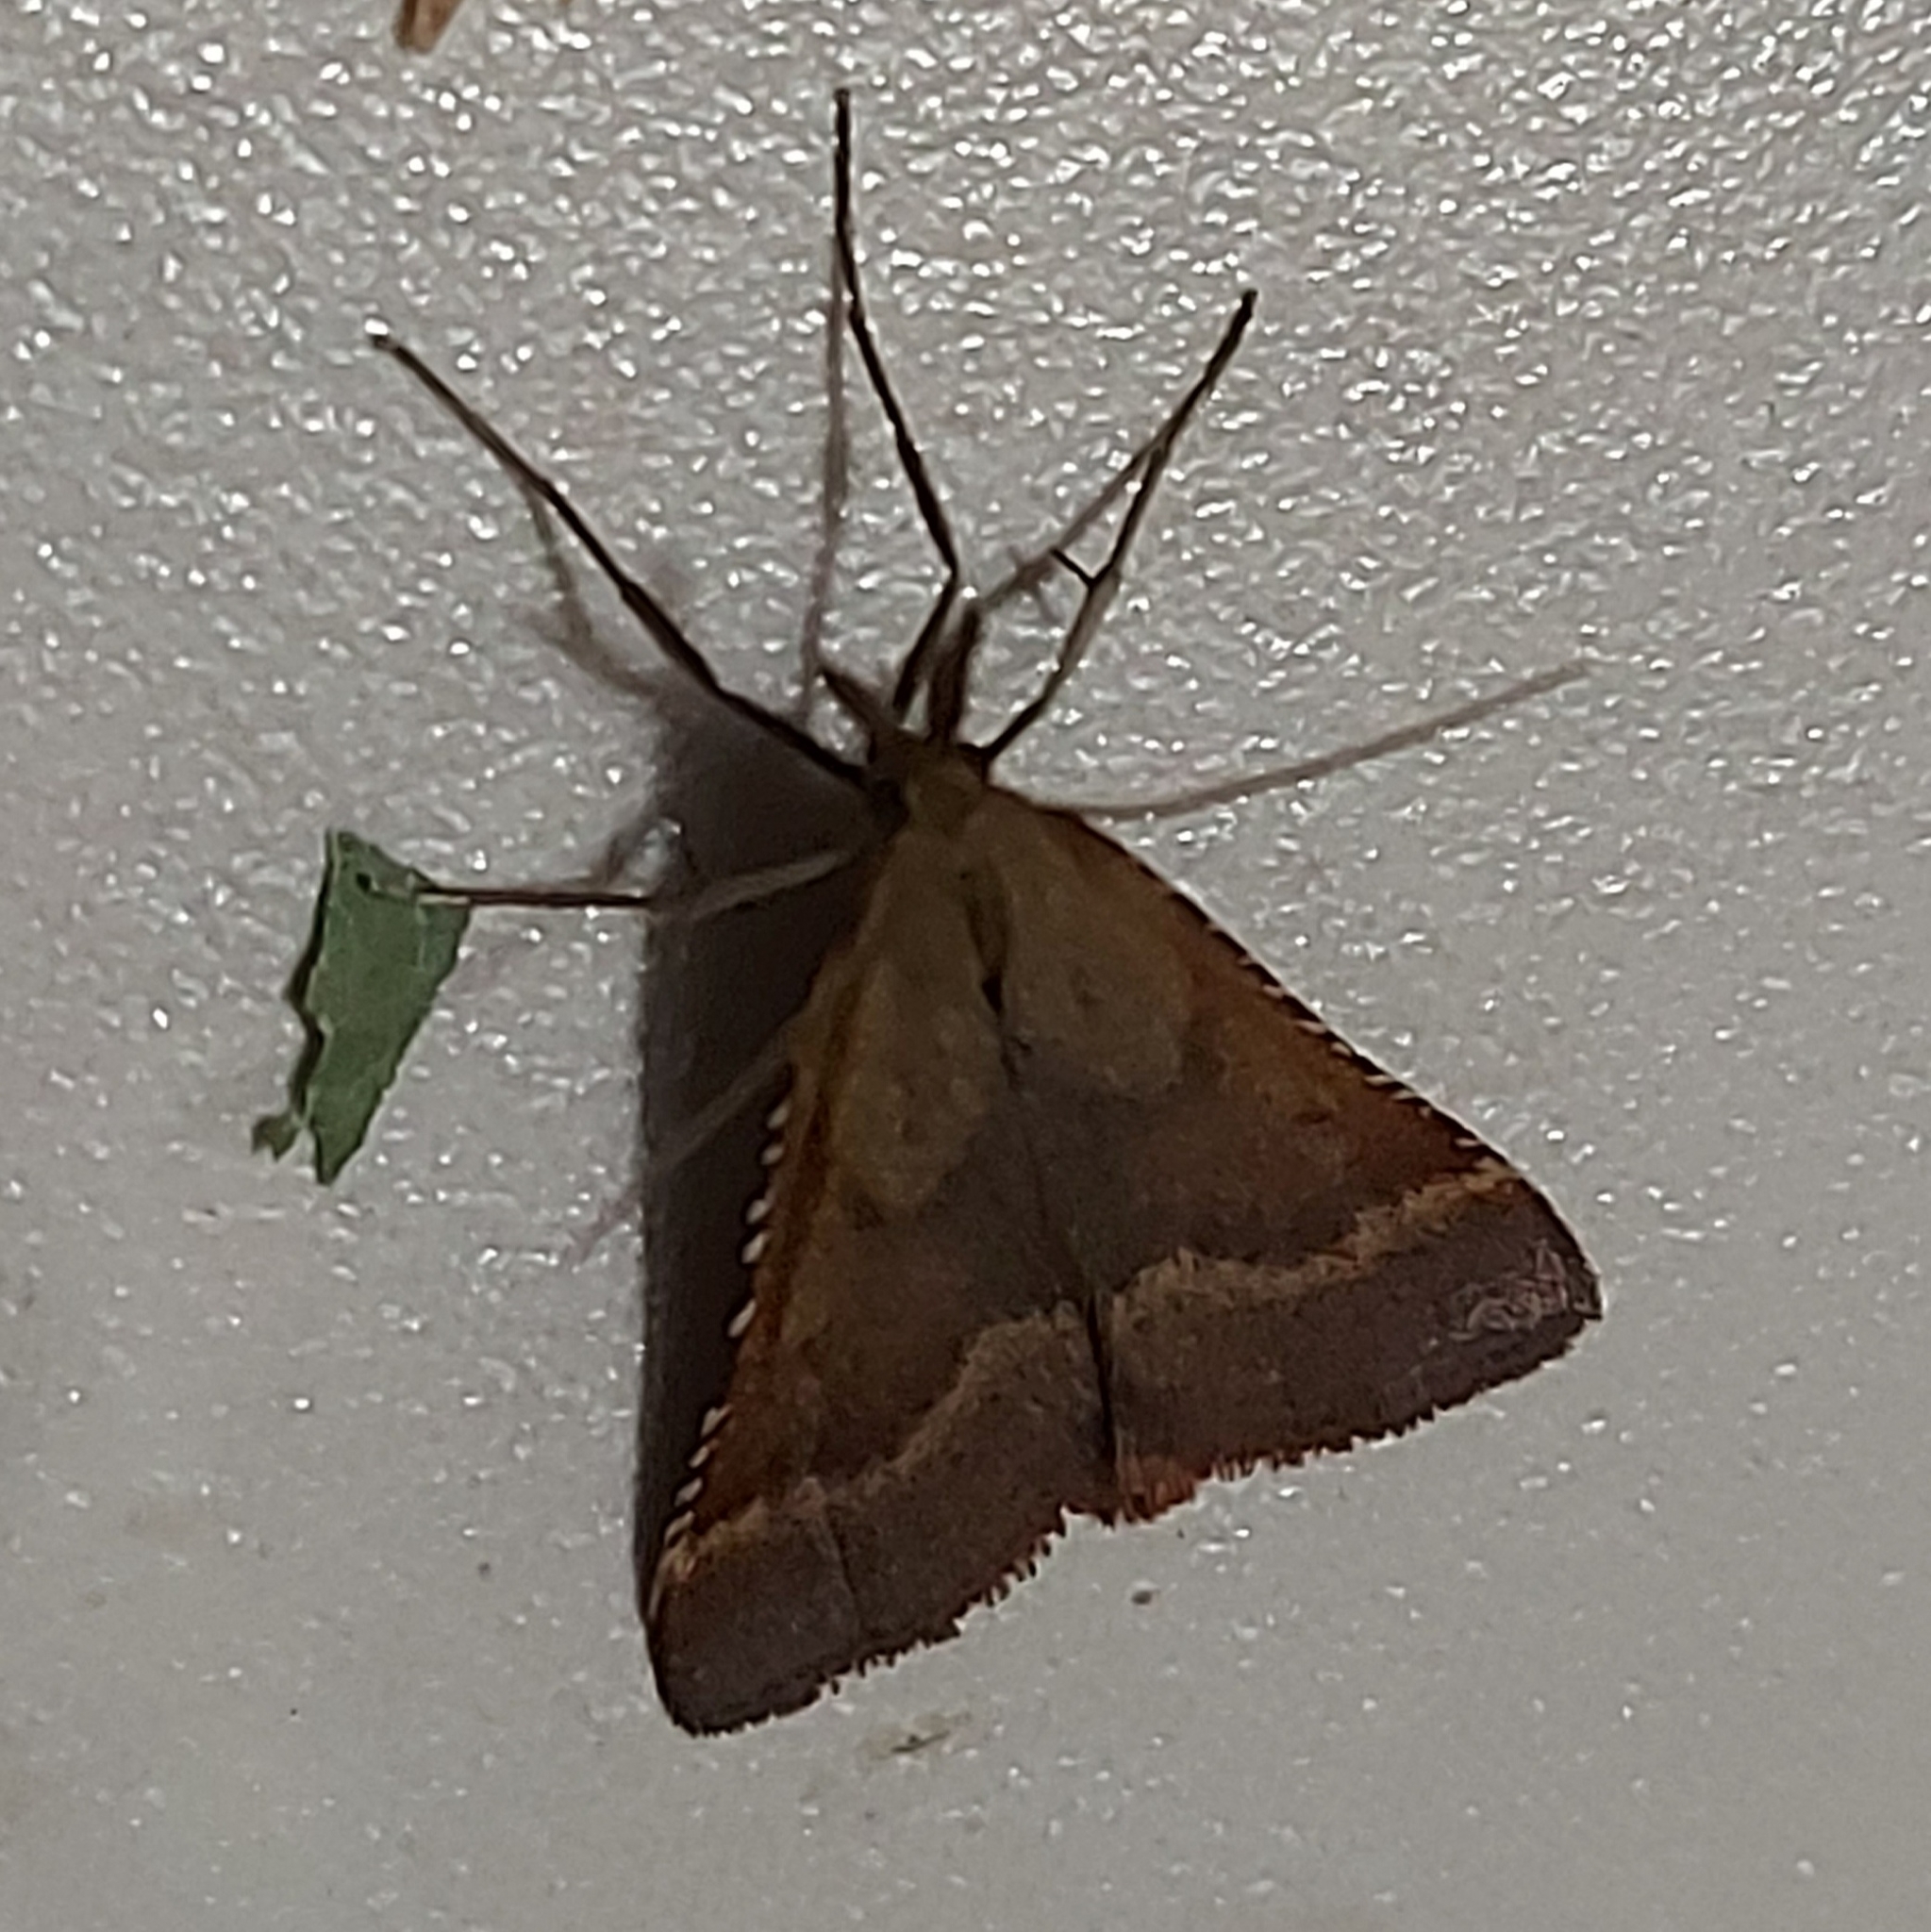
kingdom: Animalia
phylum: Arthropoda
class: Insecta
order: Lepidoptera
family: Pyralidae
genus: Synaphe
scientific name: Synaphe punctalis
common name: Long-legged tabby
